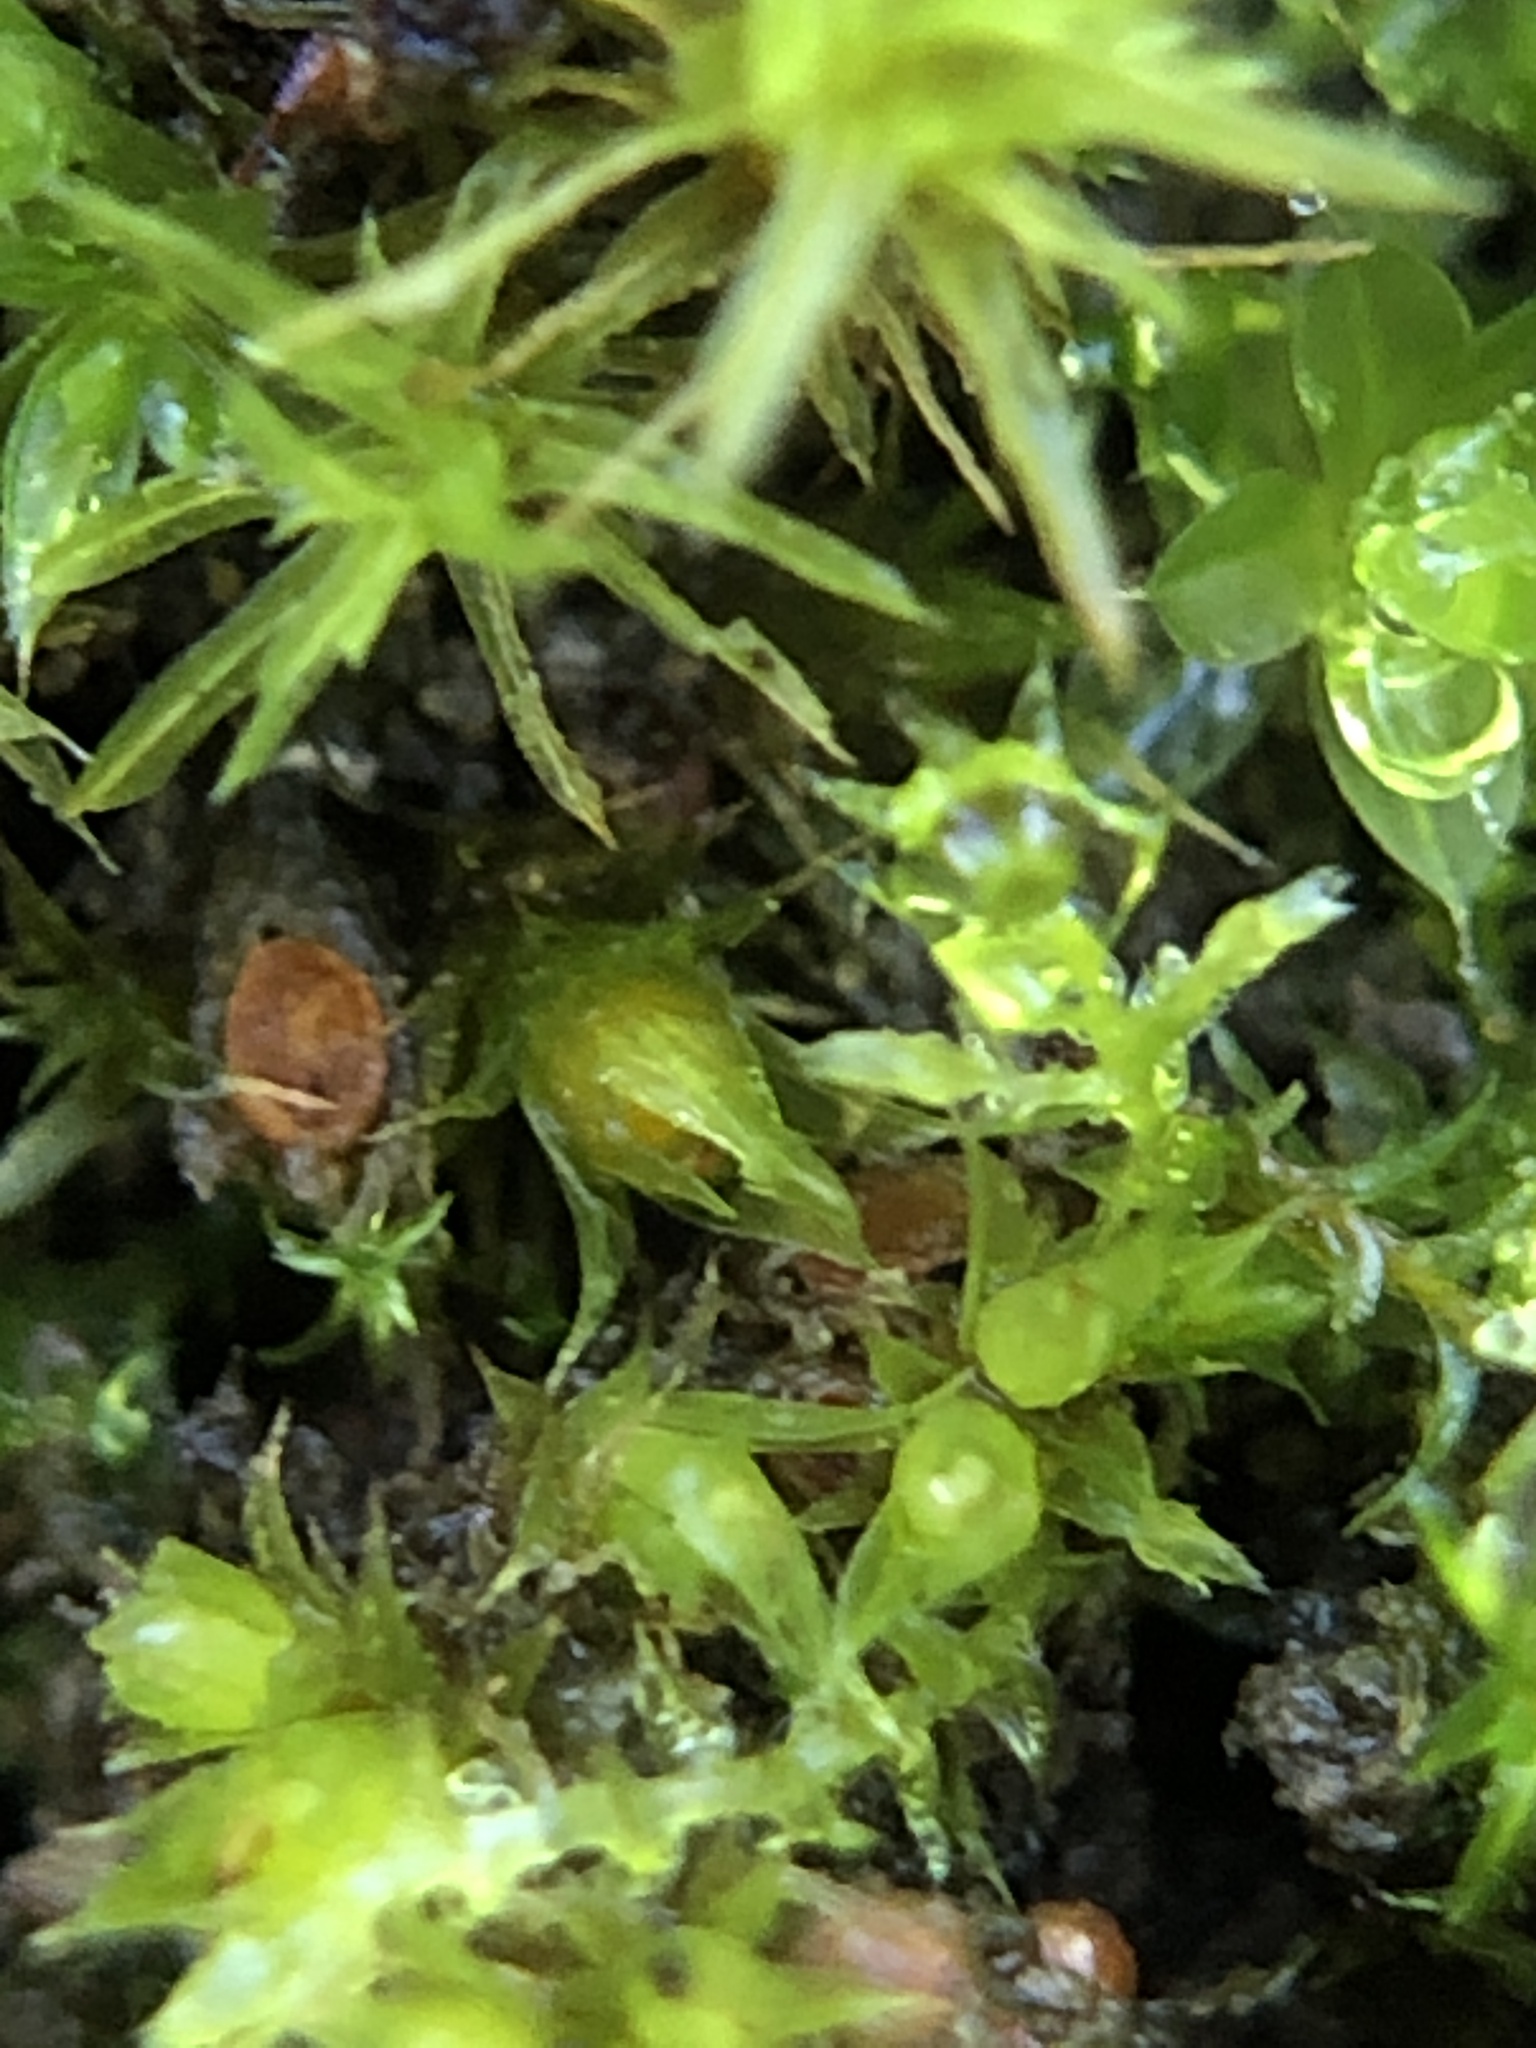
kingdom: Plantae
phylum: Bryophyta
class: Bryopsida
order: Pottiales
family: Pottiaceae
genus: Tortula
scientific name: Tortula acaulon
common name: Cuspidate earth moss
